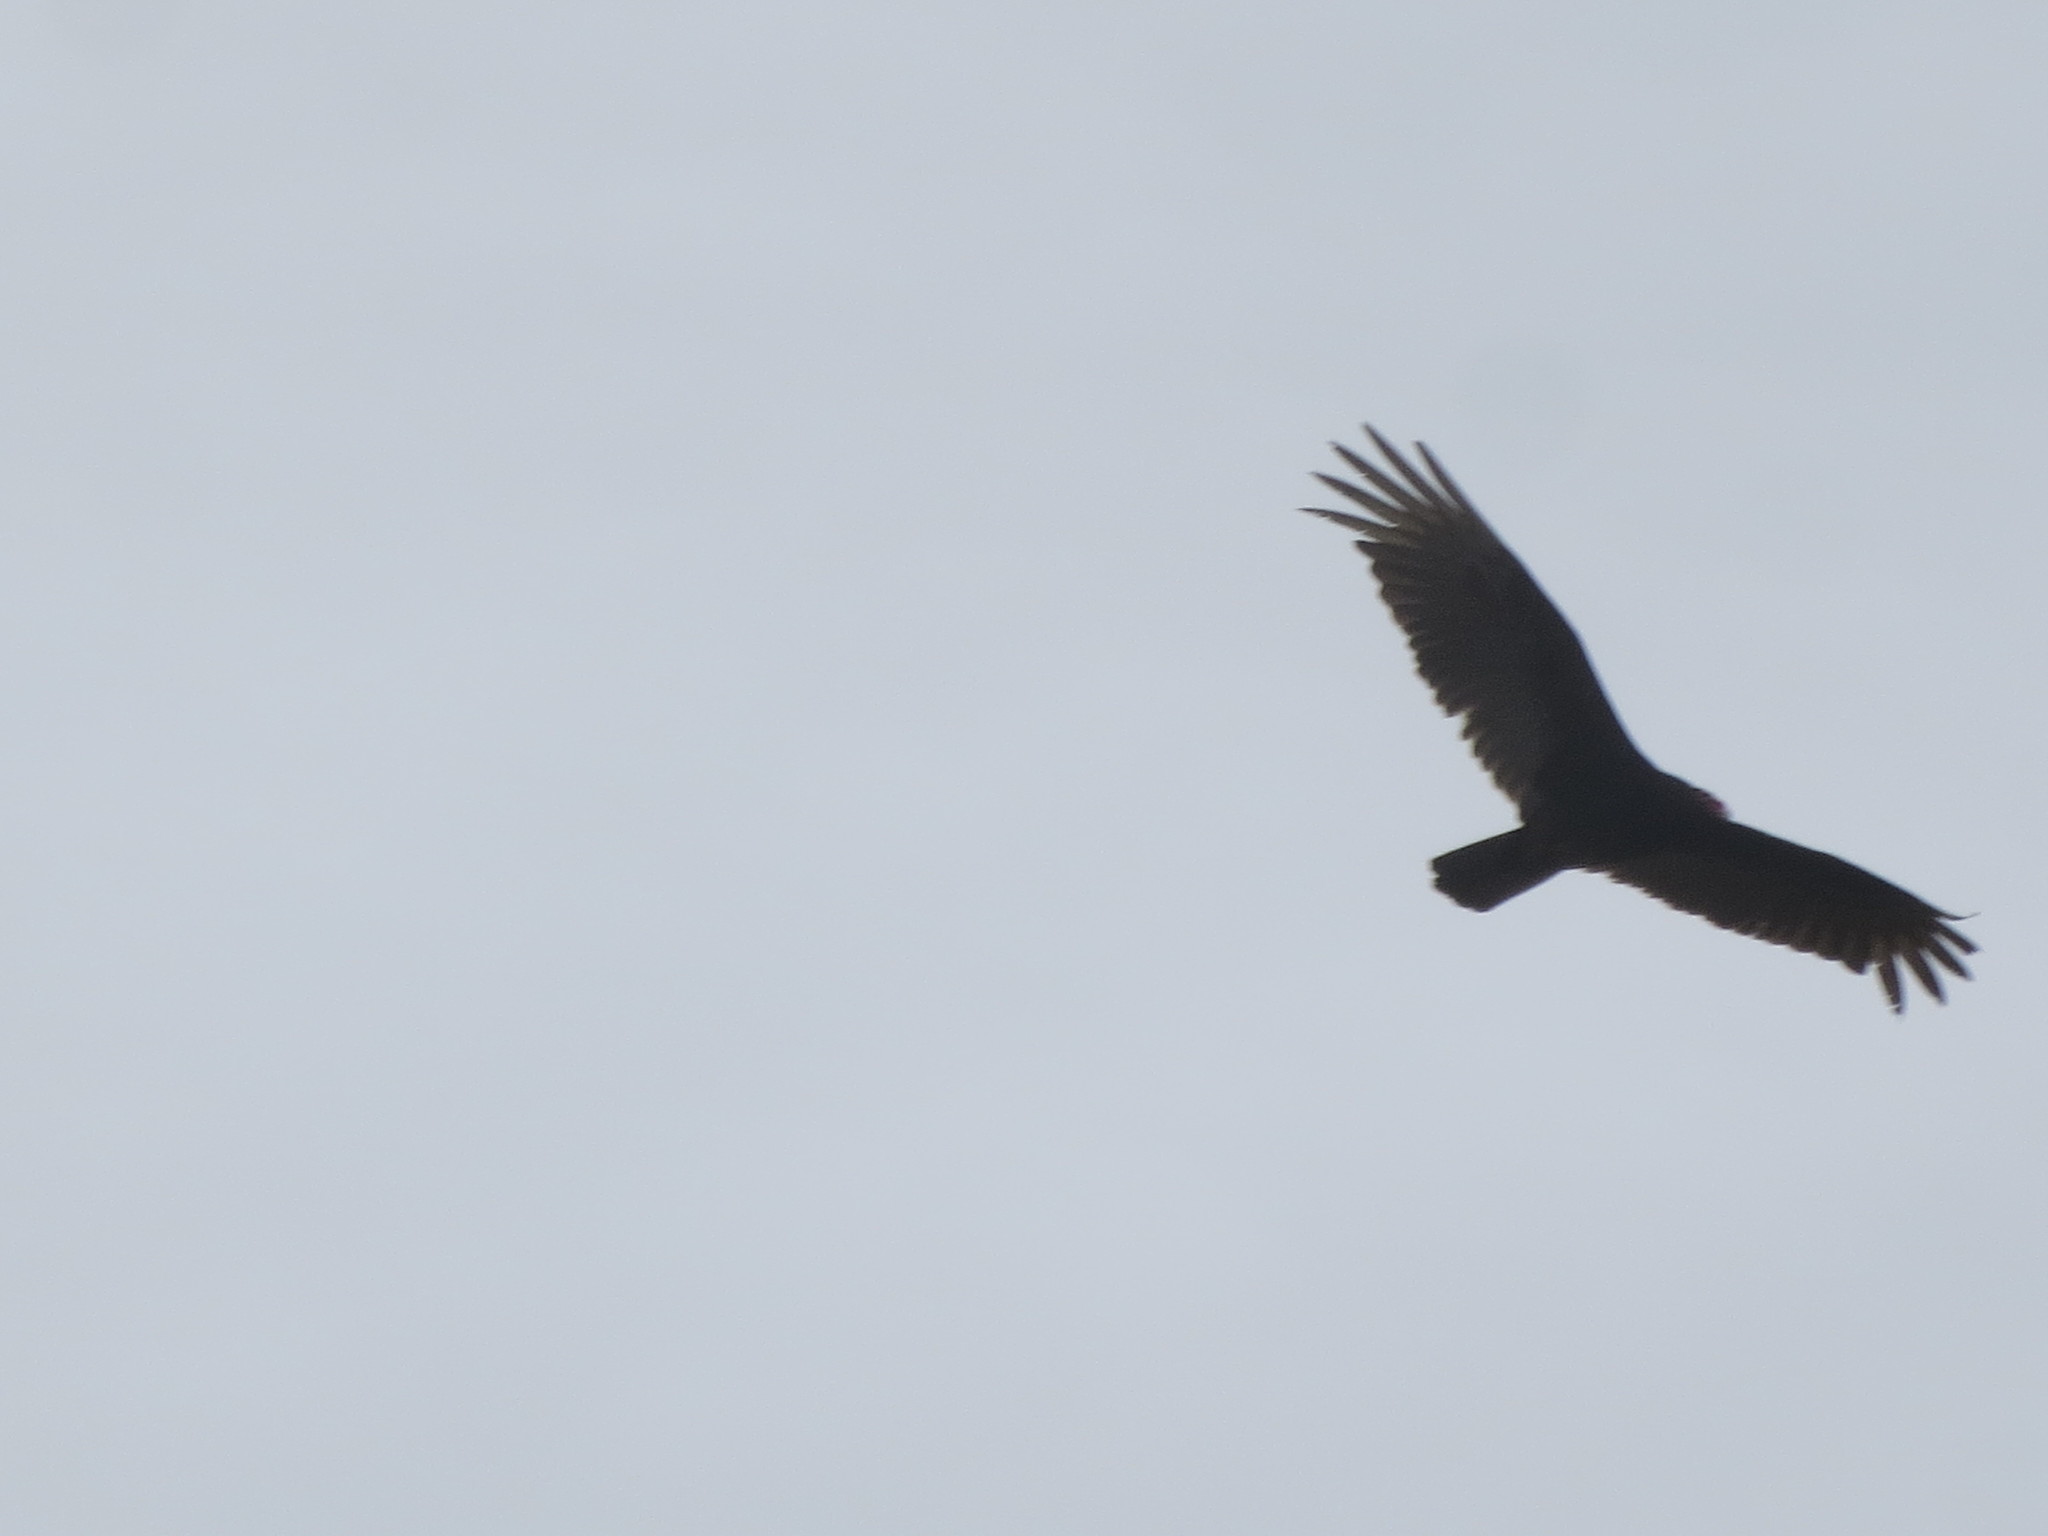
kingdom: Animalia
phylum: Chordata
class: Aves
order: Accipitriformes
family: Cathartidae
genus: Cathartes
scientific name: Cathartes aura
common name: Turkey vulture
